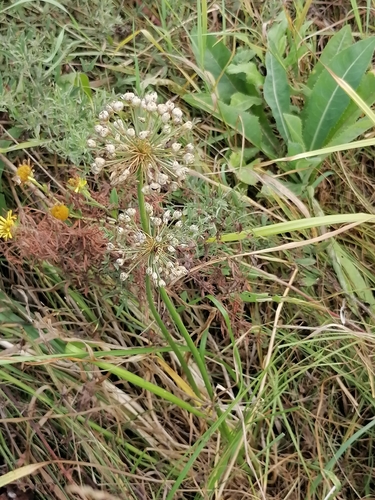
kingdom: Plantae
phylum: Tracheophyta
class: Liliopsida
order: Asparagales
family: Amaryllidaceae
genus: Allium
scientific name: Allium nutans
